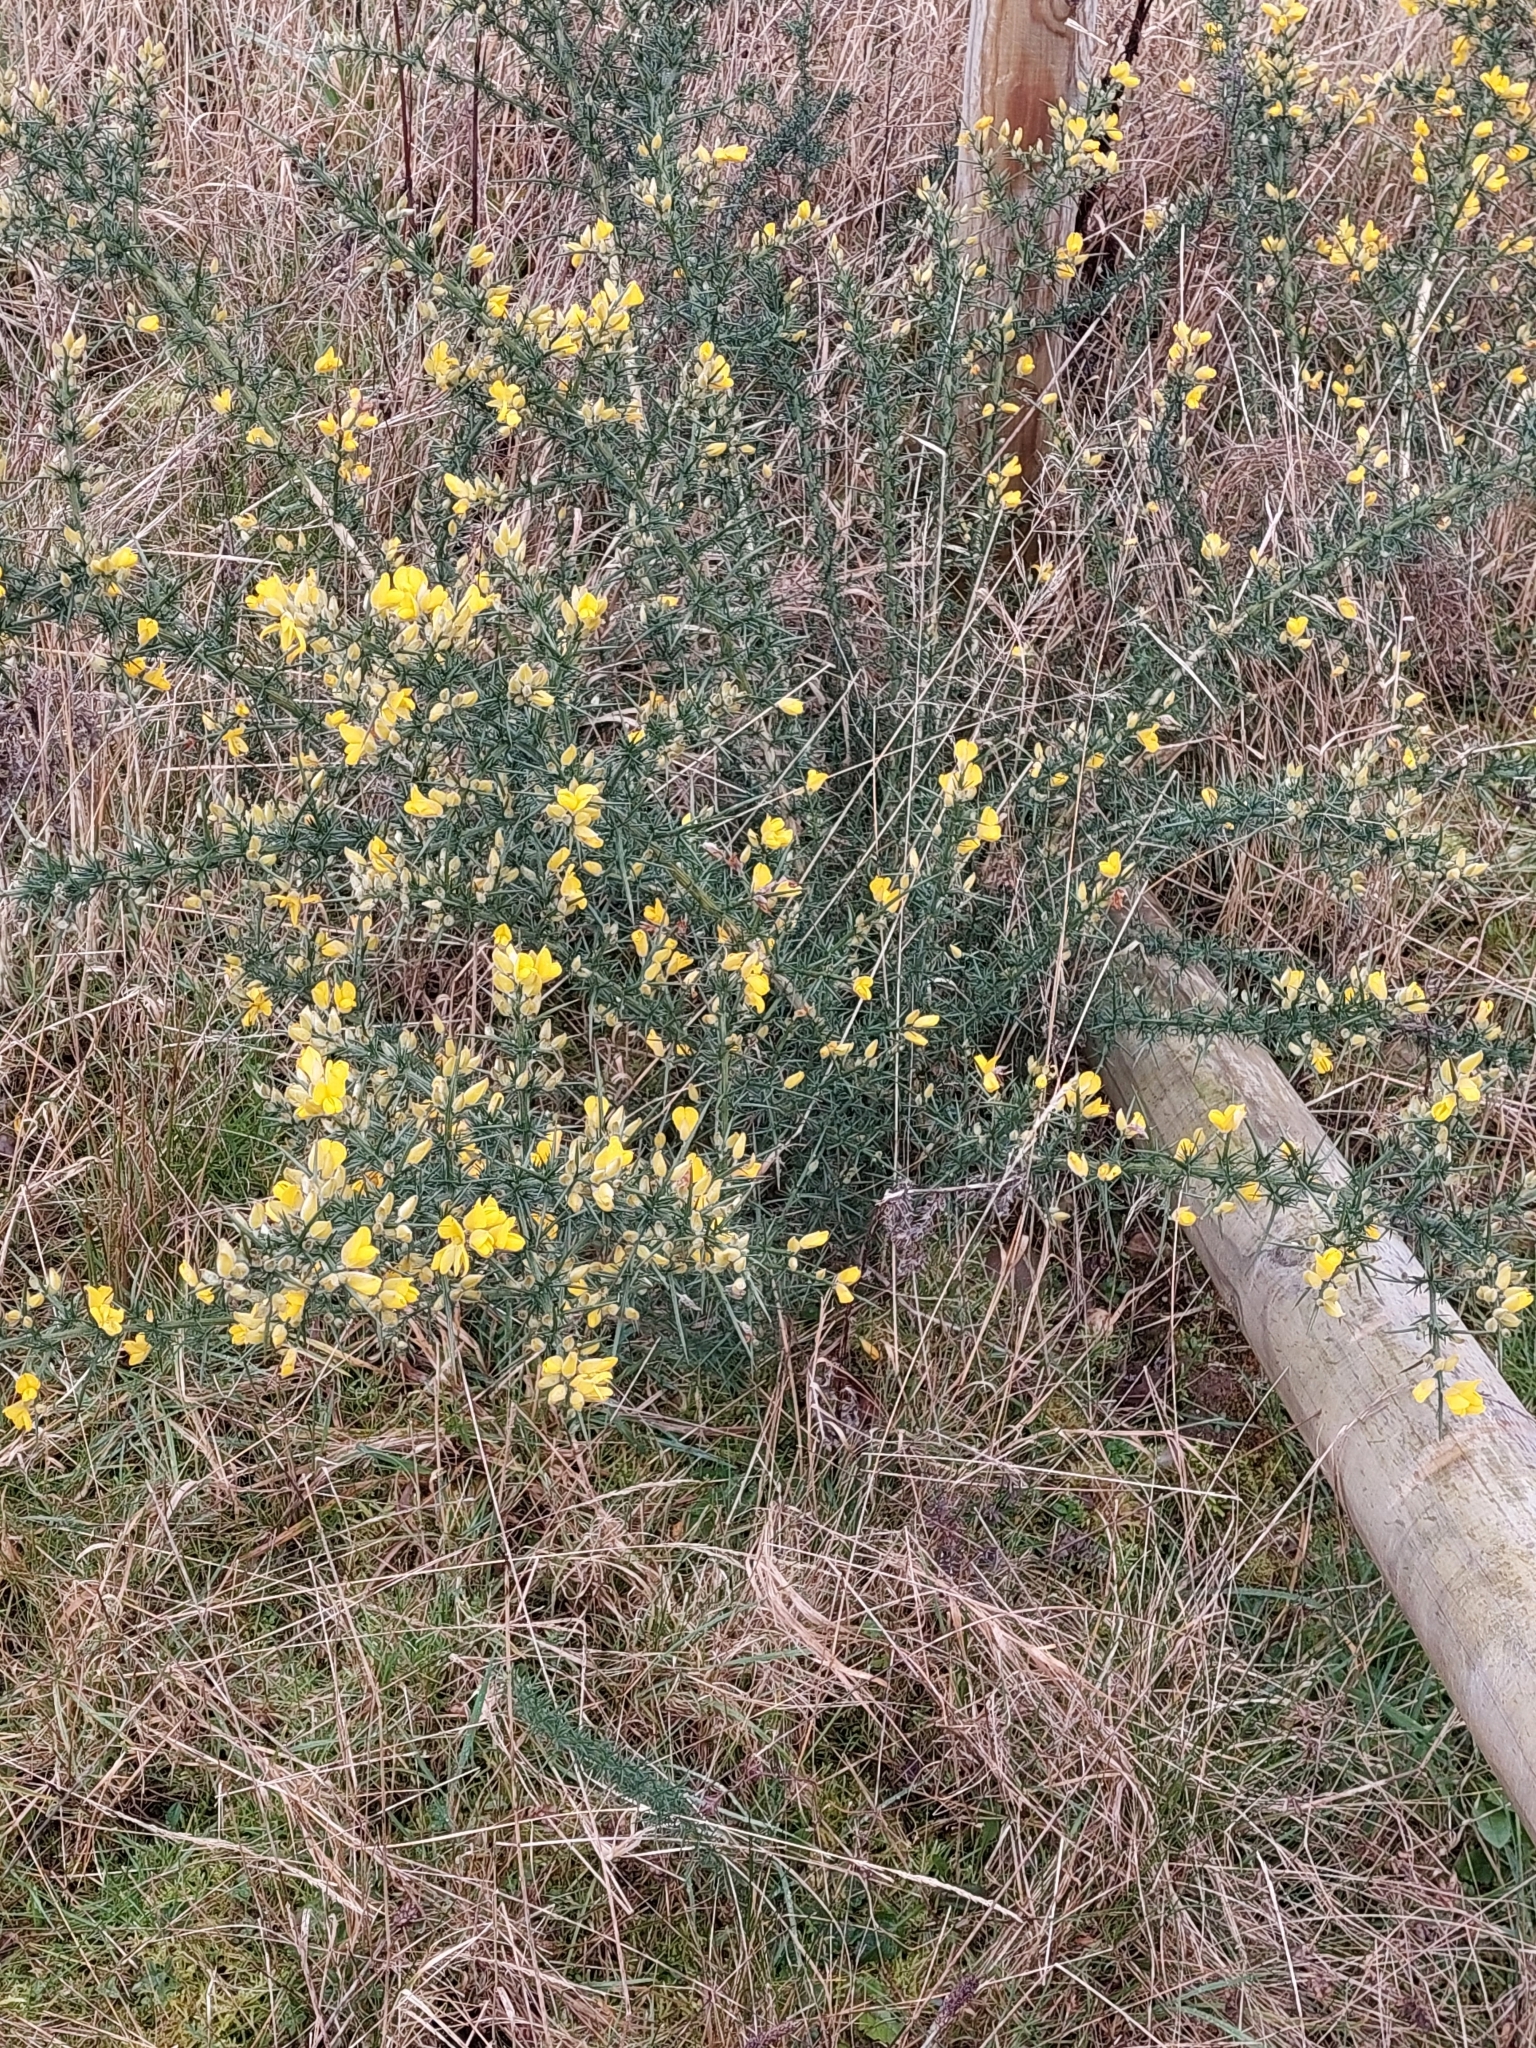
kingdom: Plantae
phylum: Tracheophyta
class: Magnoliopsida
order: Fabales
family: Fabaceae
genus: Ulex
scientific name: Ulex europaeus
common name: Common gorse
